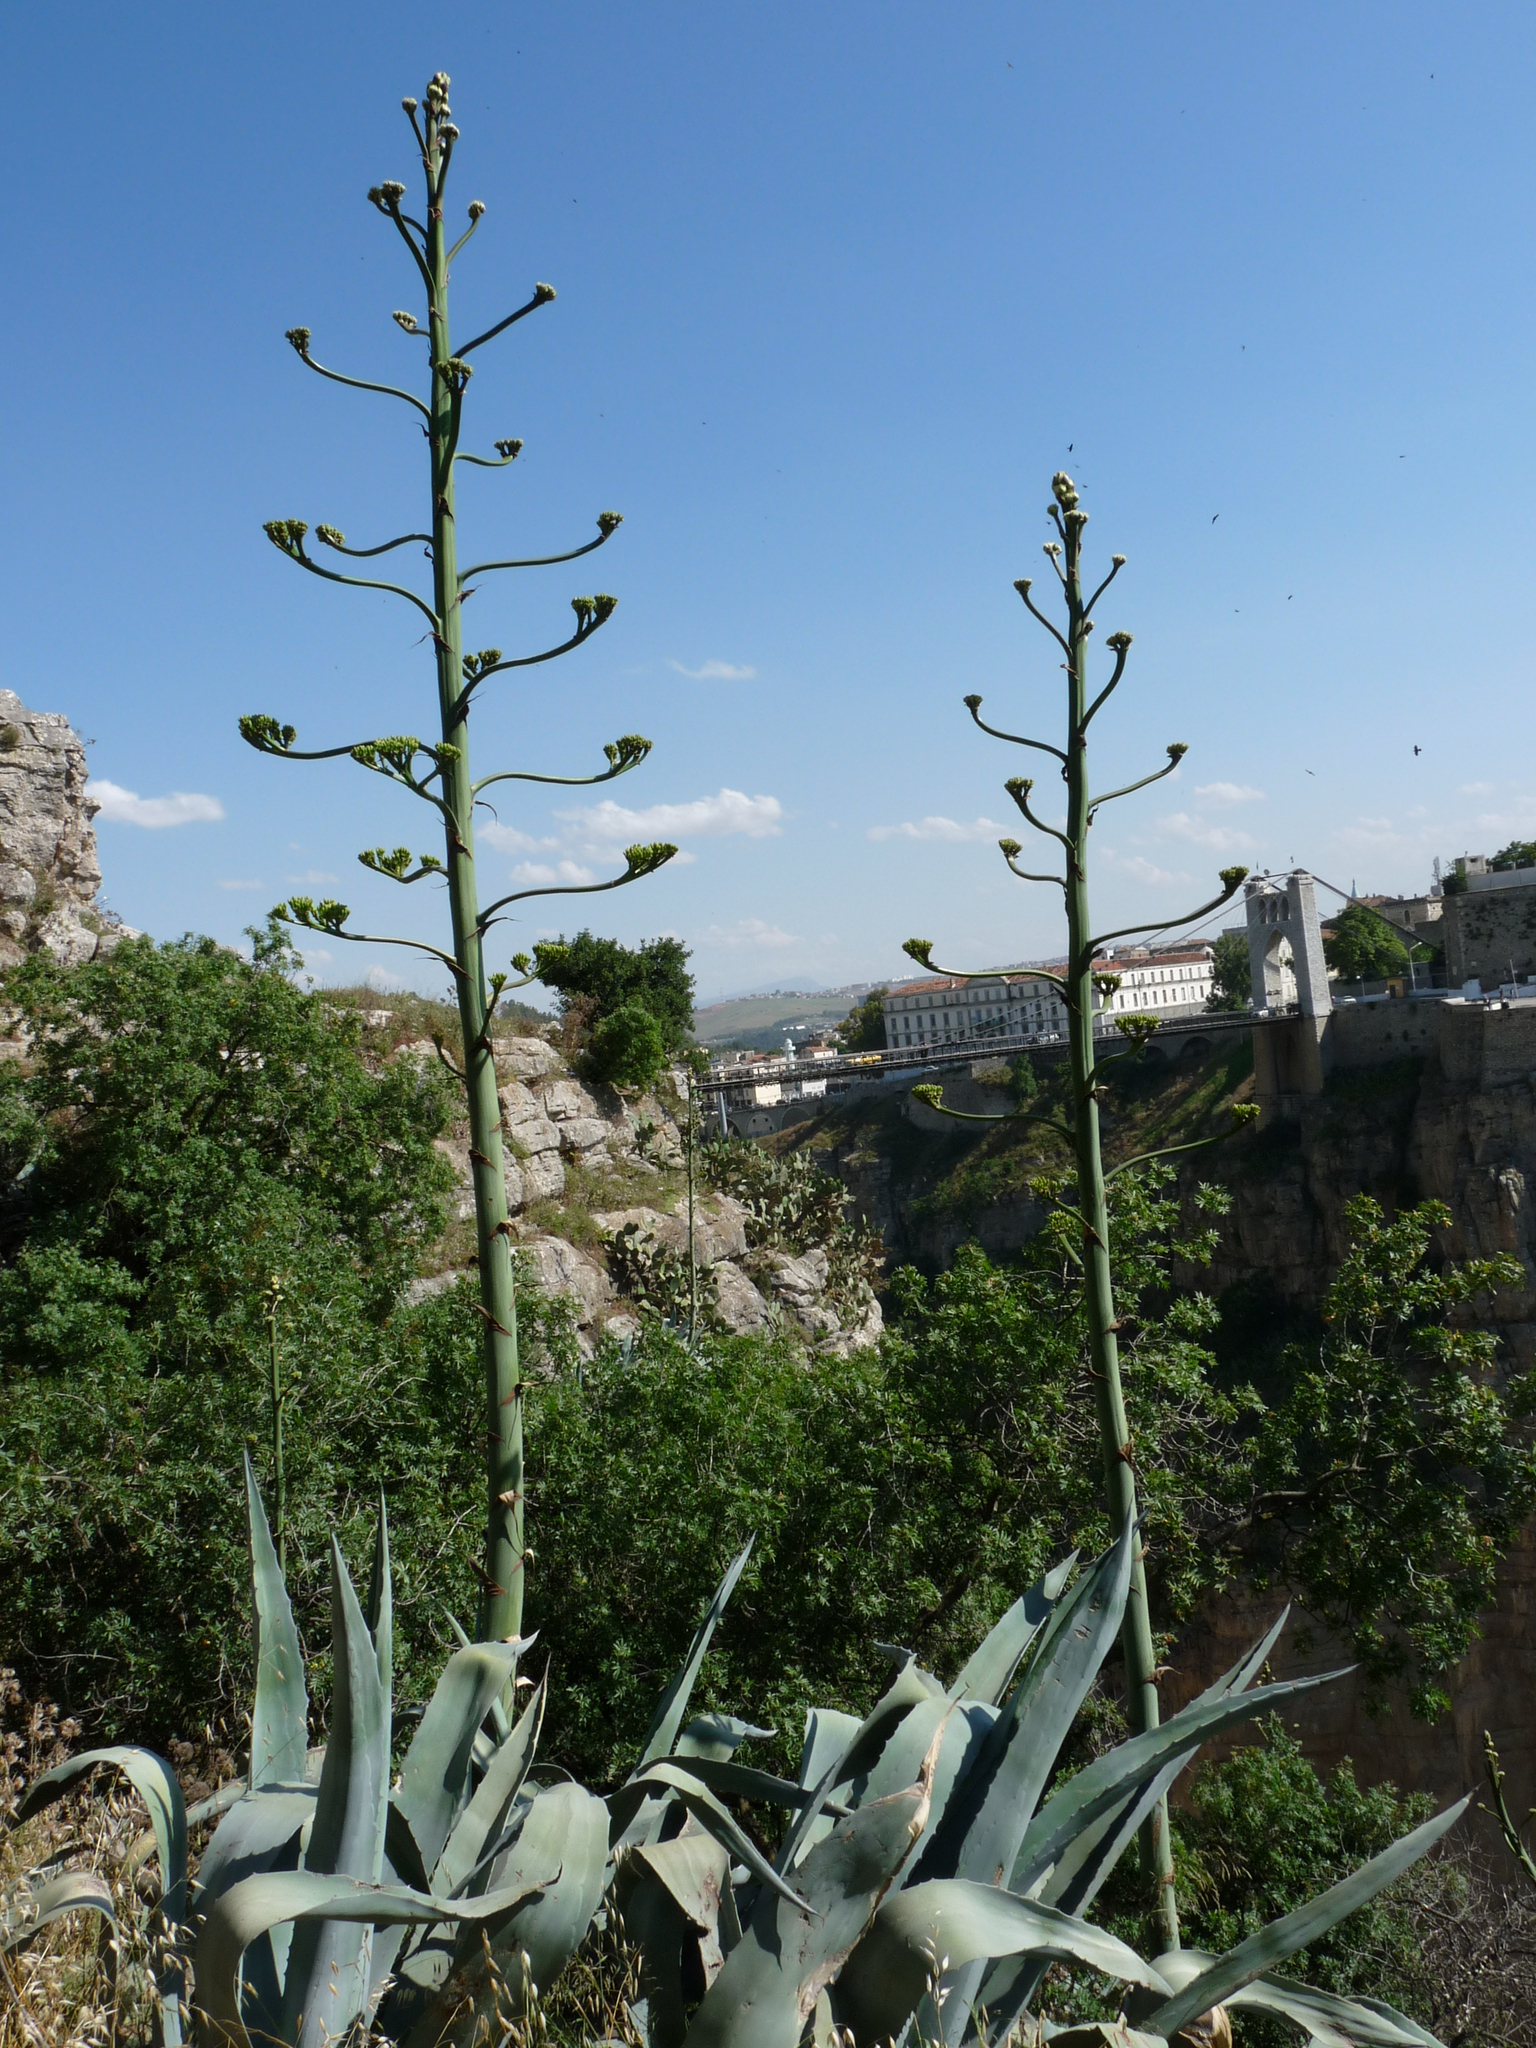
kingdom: Plantae
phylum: Tracheophyta
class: Liliopsida
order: Asparagales
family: Asparagaceae
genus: Agave
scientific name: Agave americana
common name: Centuryplant
